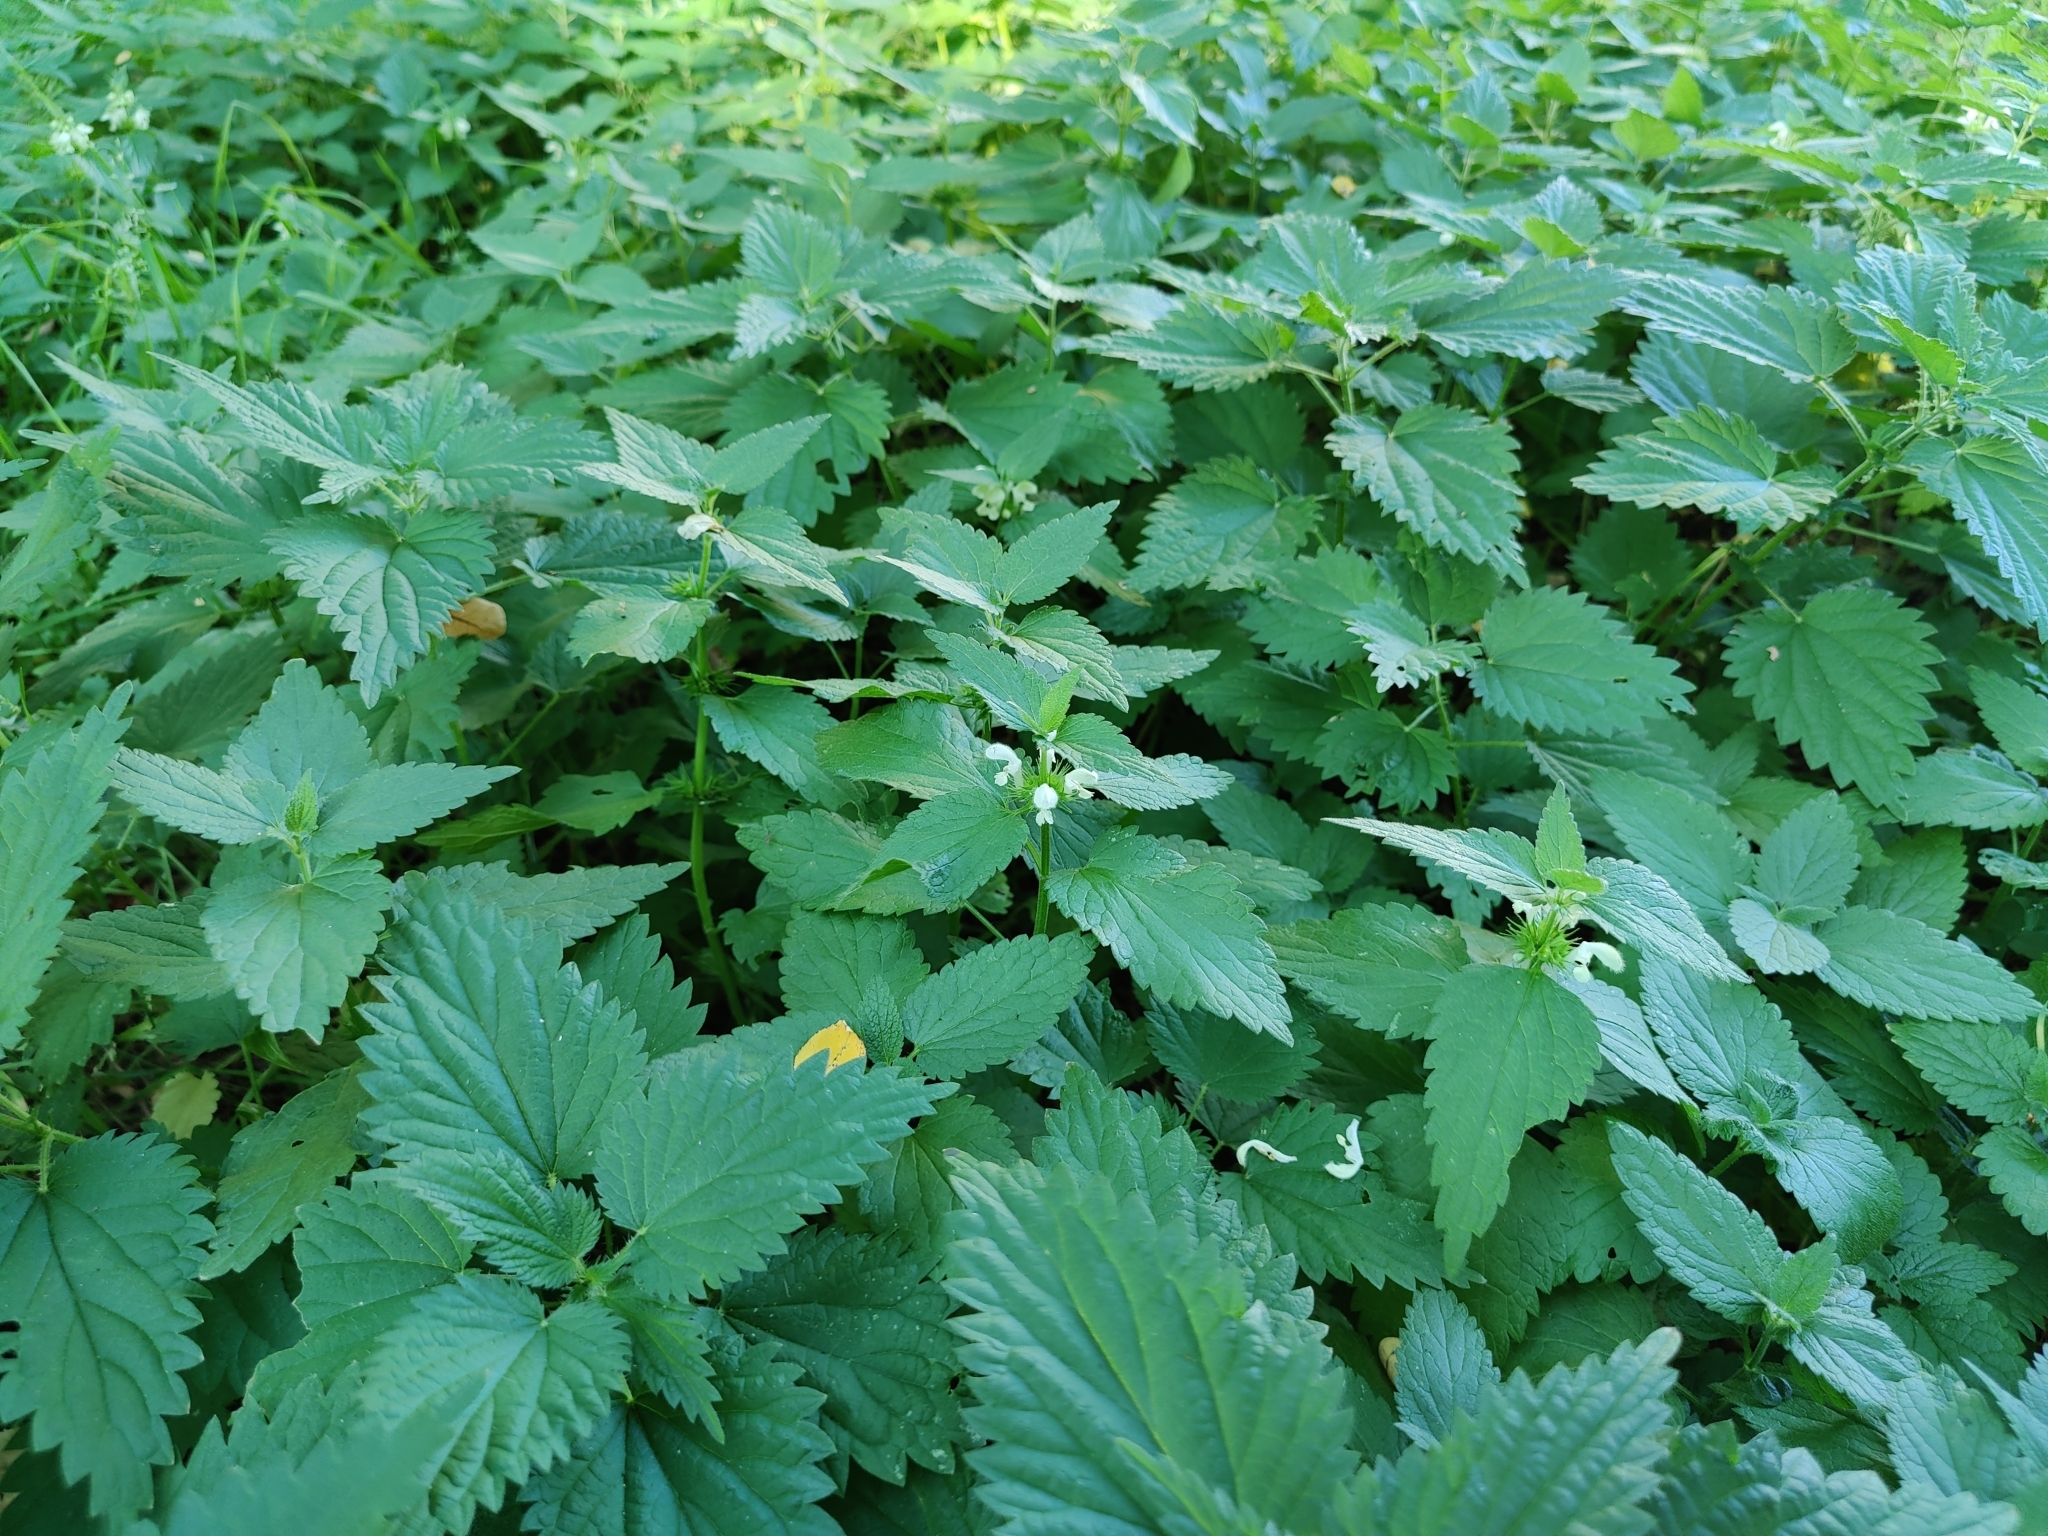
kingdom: Plantae
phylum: Tracheophyta
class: Magnoliopsida
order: Lamiales
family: Lamiaceae
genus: Lamium
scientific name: Lamium album
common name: White dead-nettle
